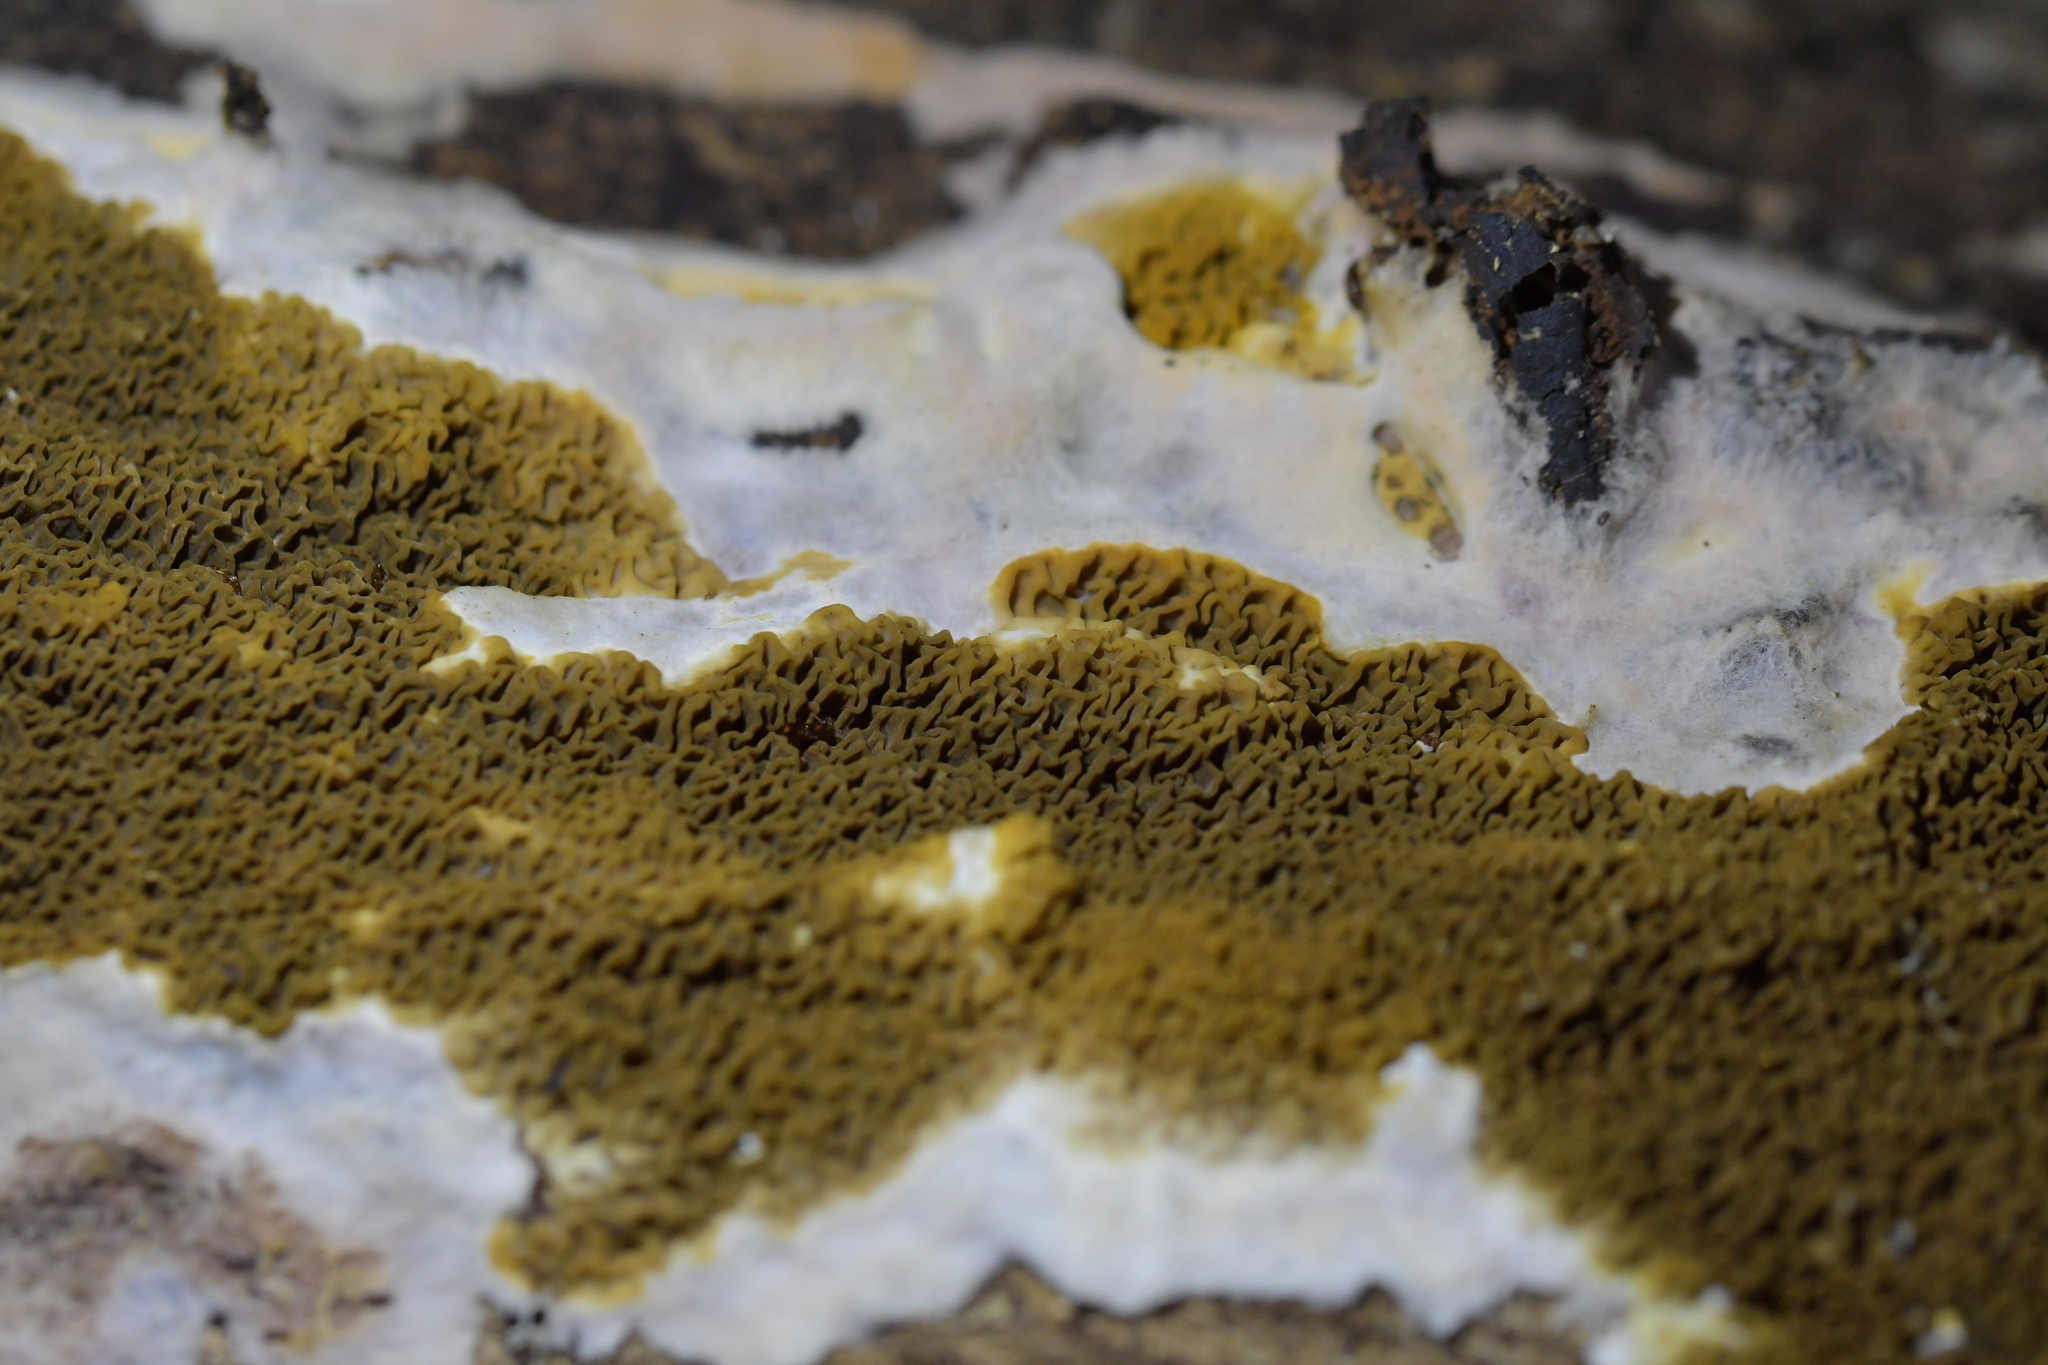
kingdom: Fungi
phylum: Basidiomycota
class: Agaricomycetes
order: Boletales
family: Serpulaceae
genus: Serpula
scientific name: Serpula himantioides
